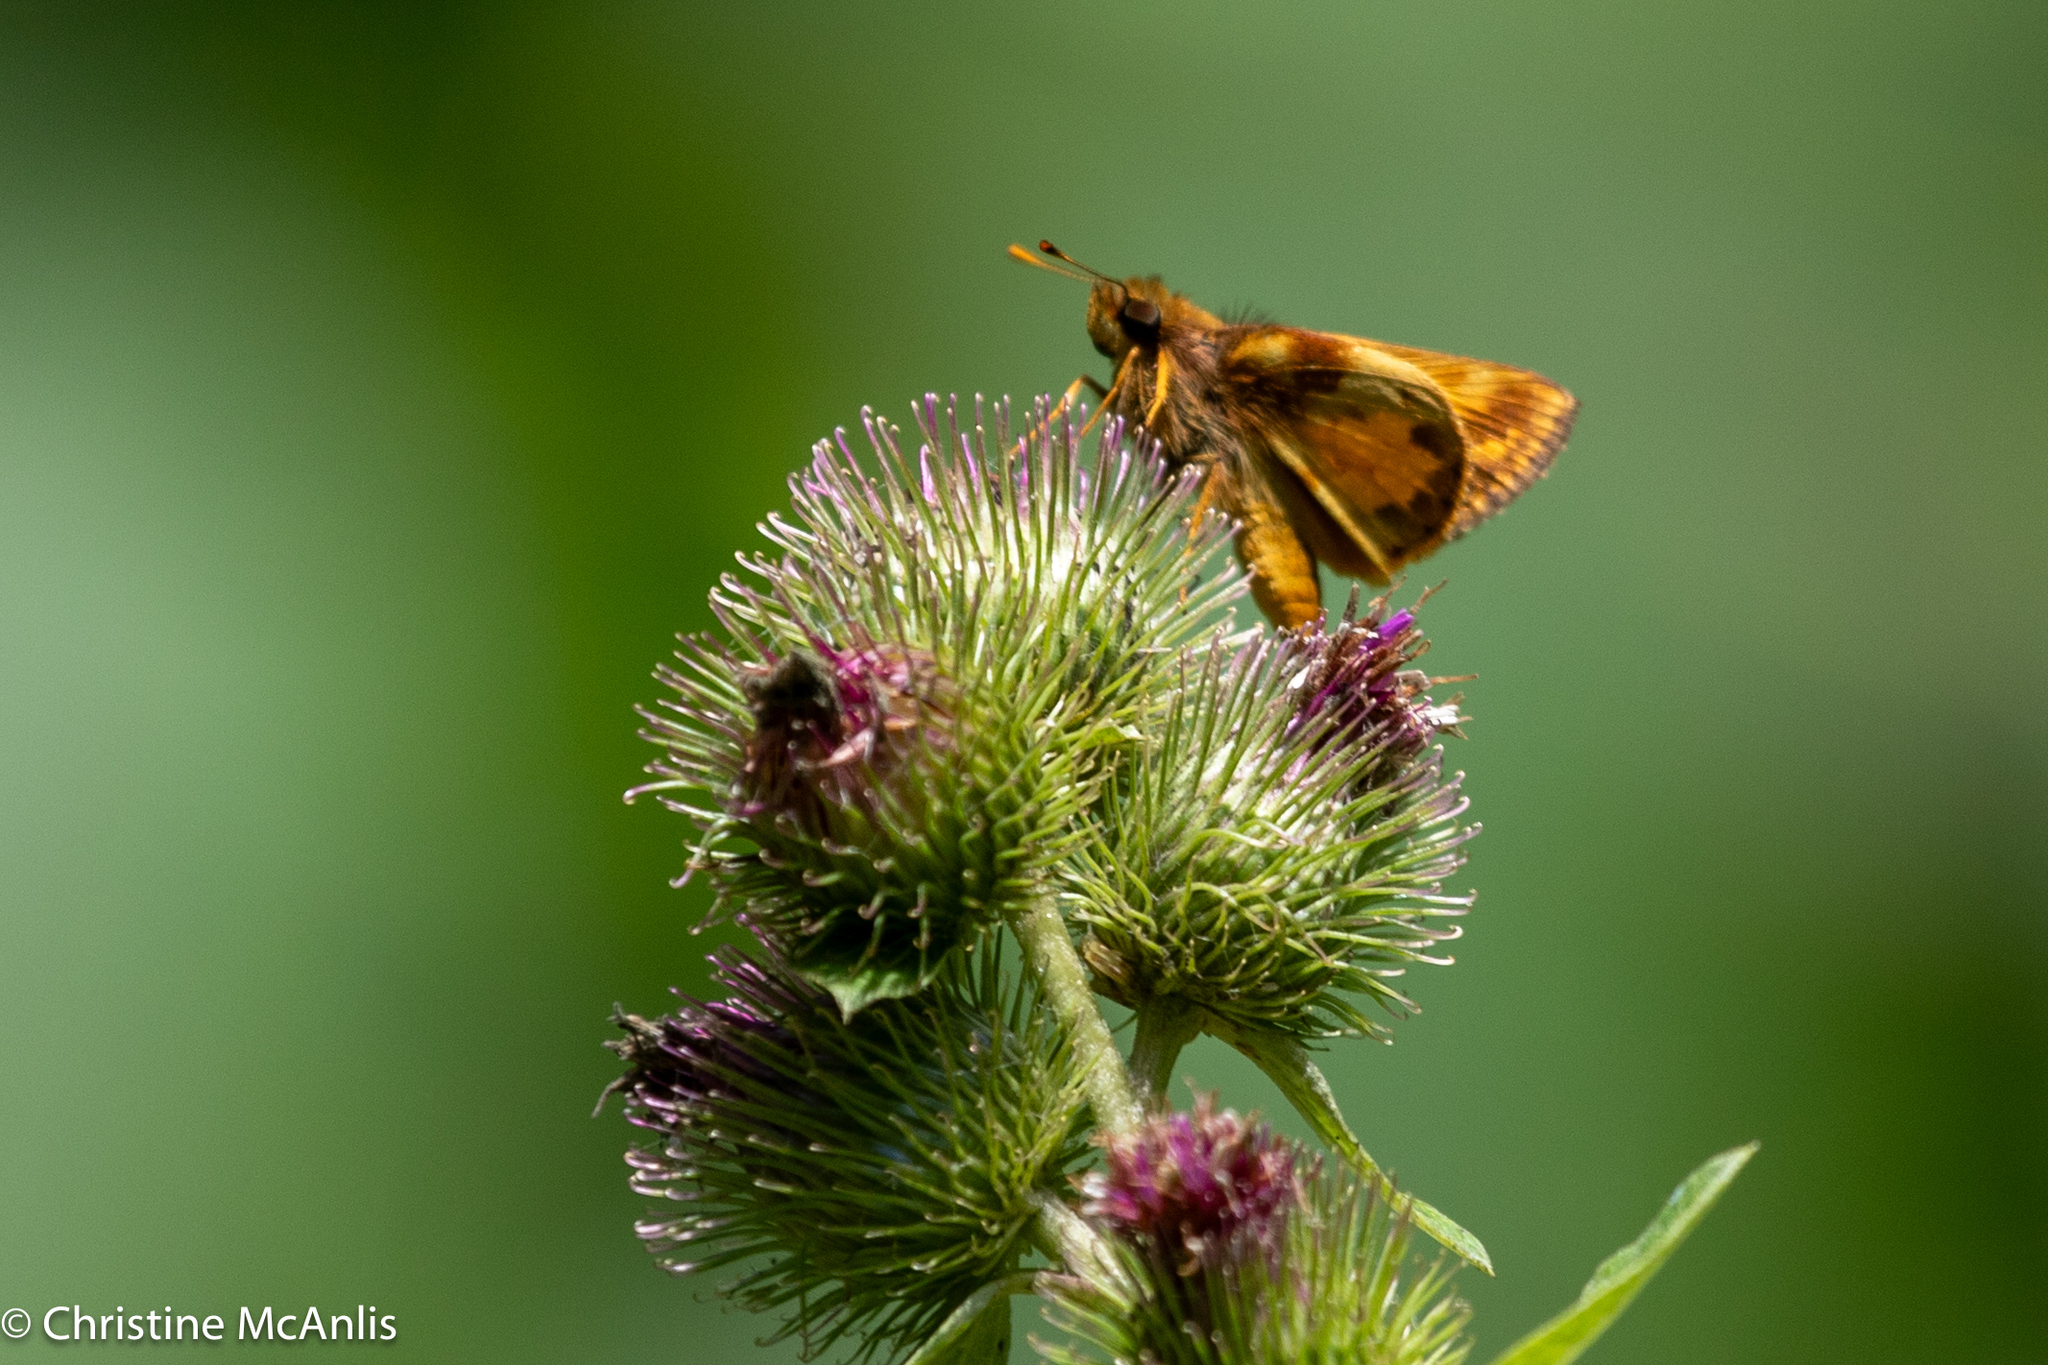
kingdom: Animalia
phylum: Arthropoda
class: Insecta
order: Lepidoptera
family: Hesperiidae
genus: Lon
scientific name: Lon zabulon
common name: Zabulon skipper
